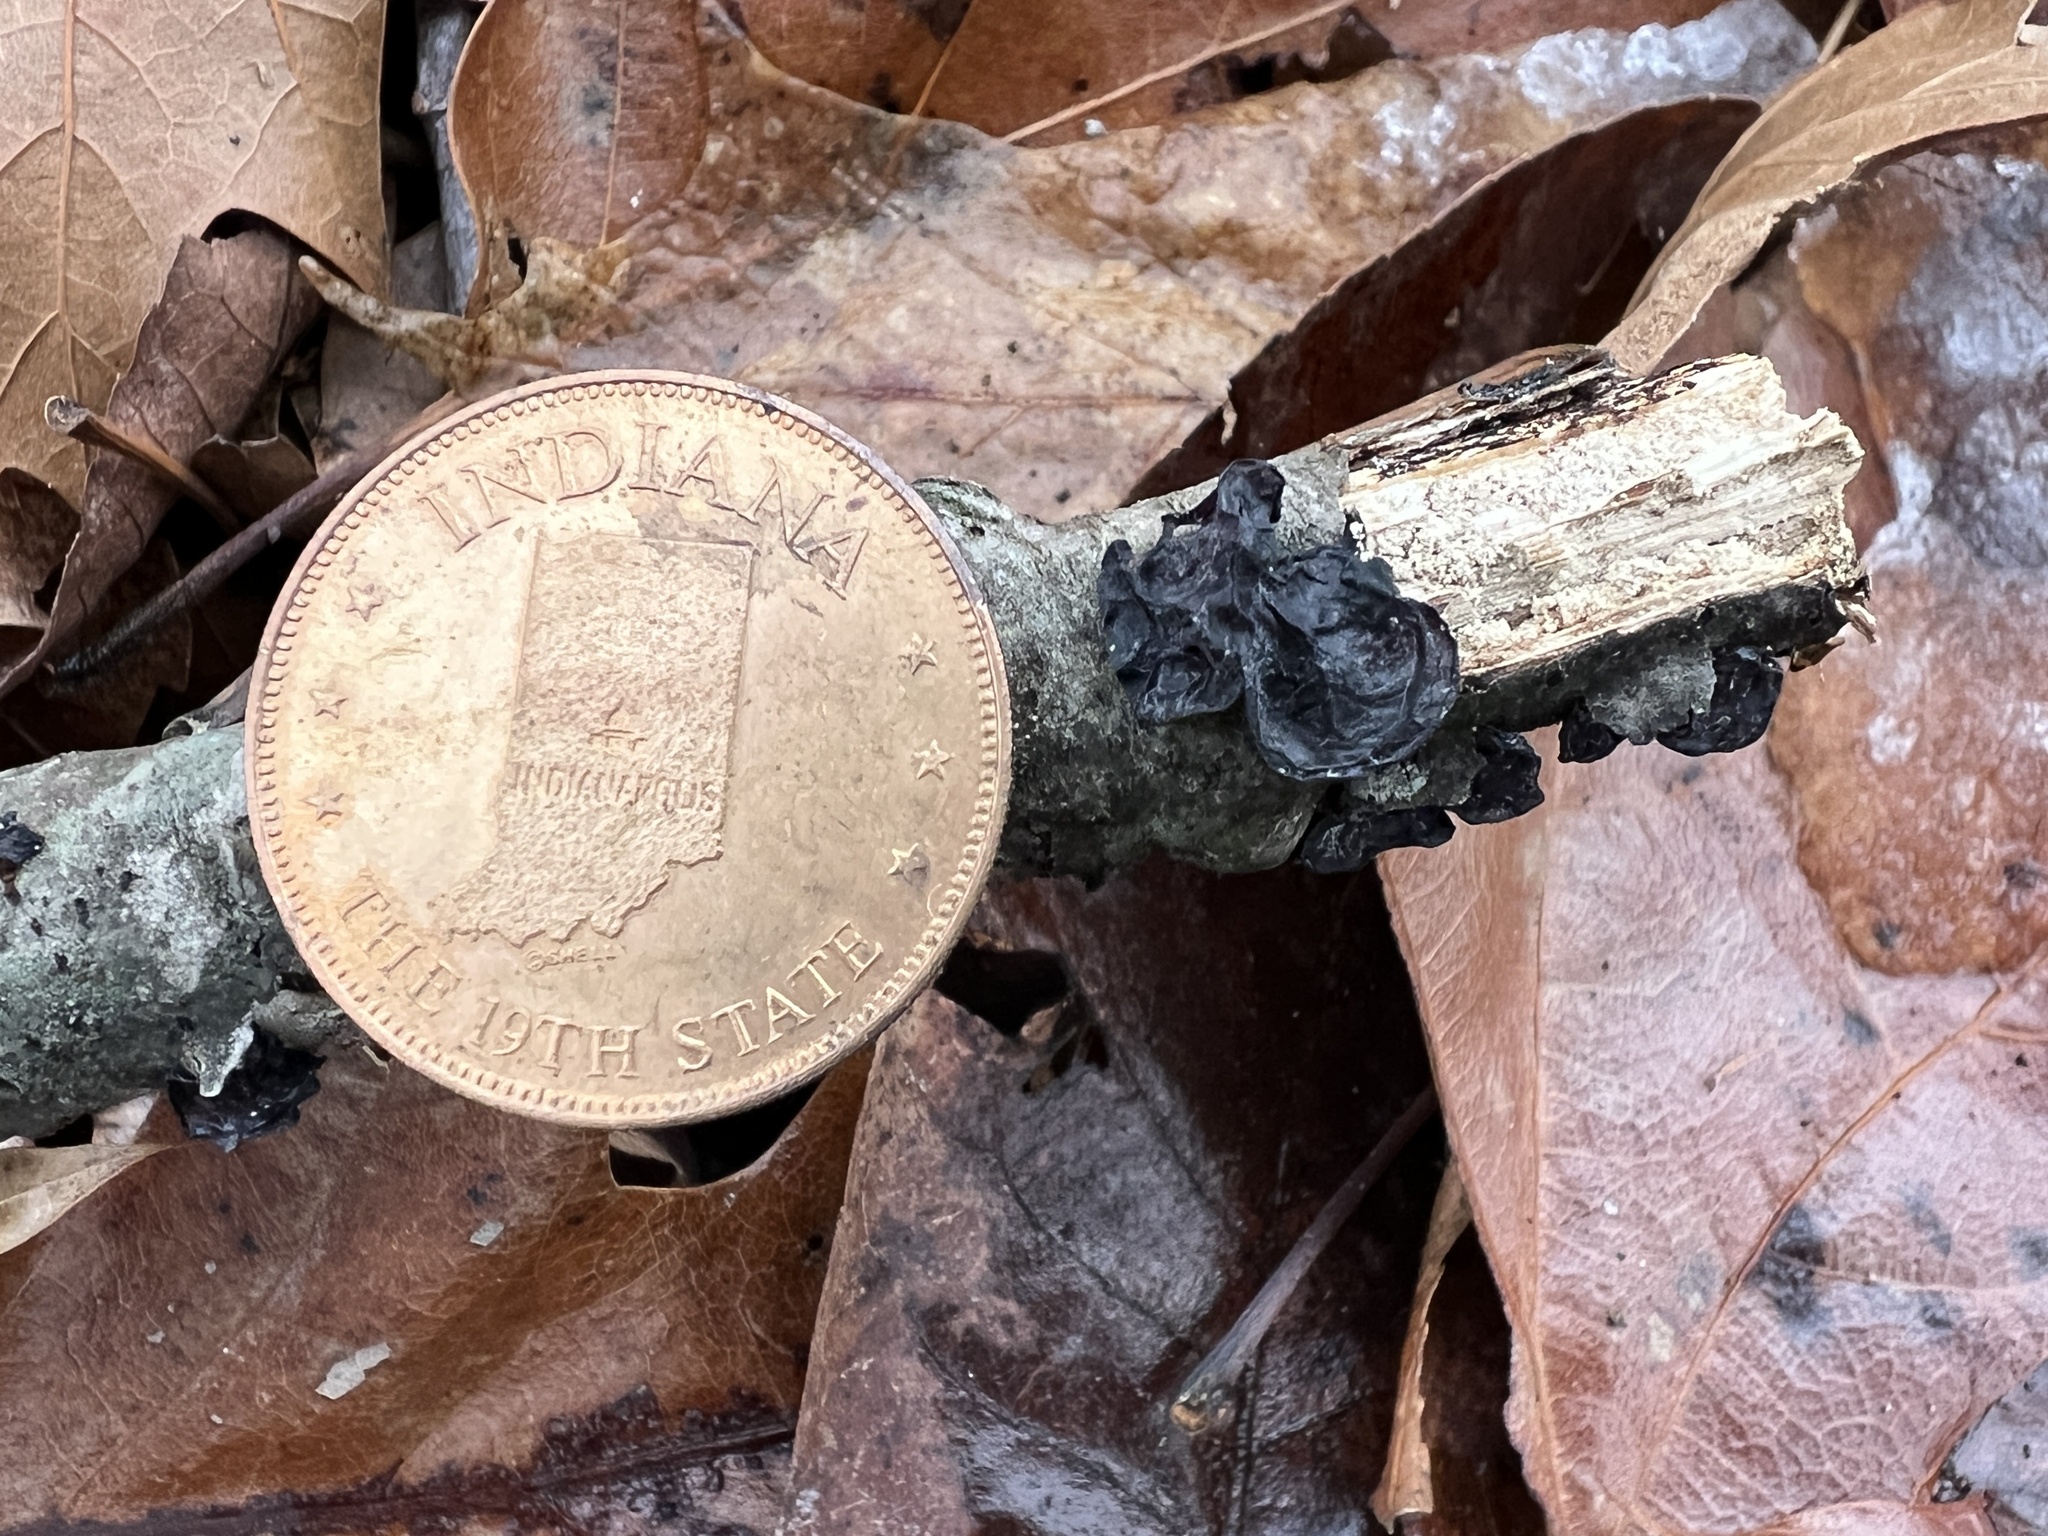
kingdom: Fungi
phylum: Basidiomycota
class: Agaricomycetes
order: Auriculariales
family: Auriculariaceae
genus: Exidia
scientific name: Exidia
